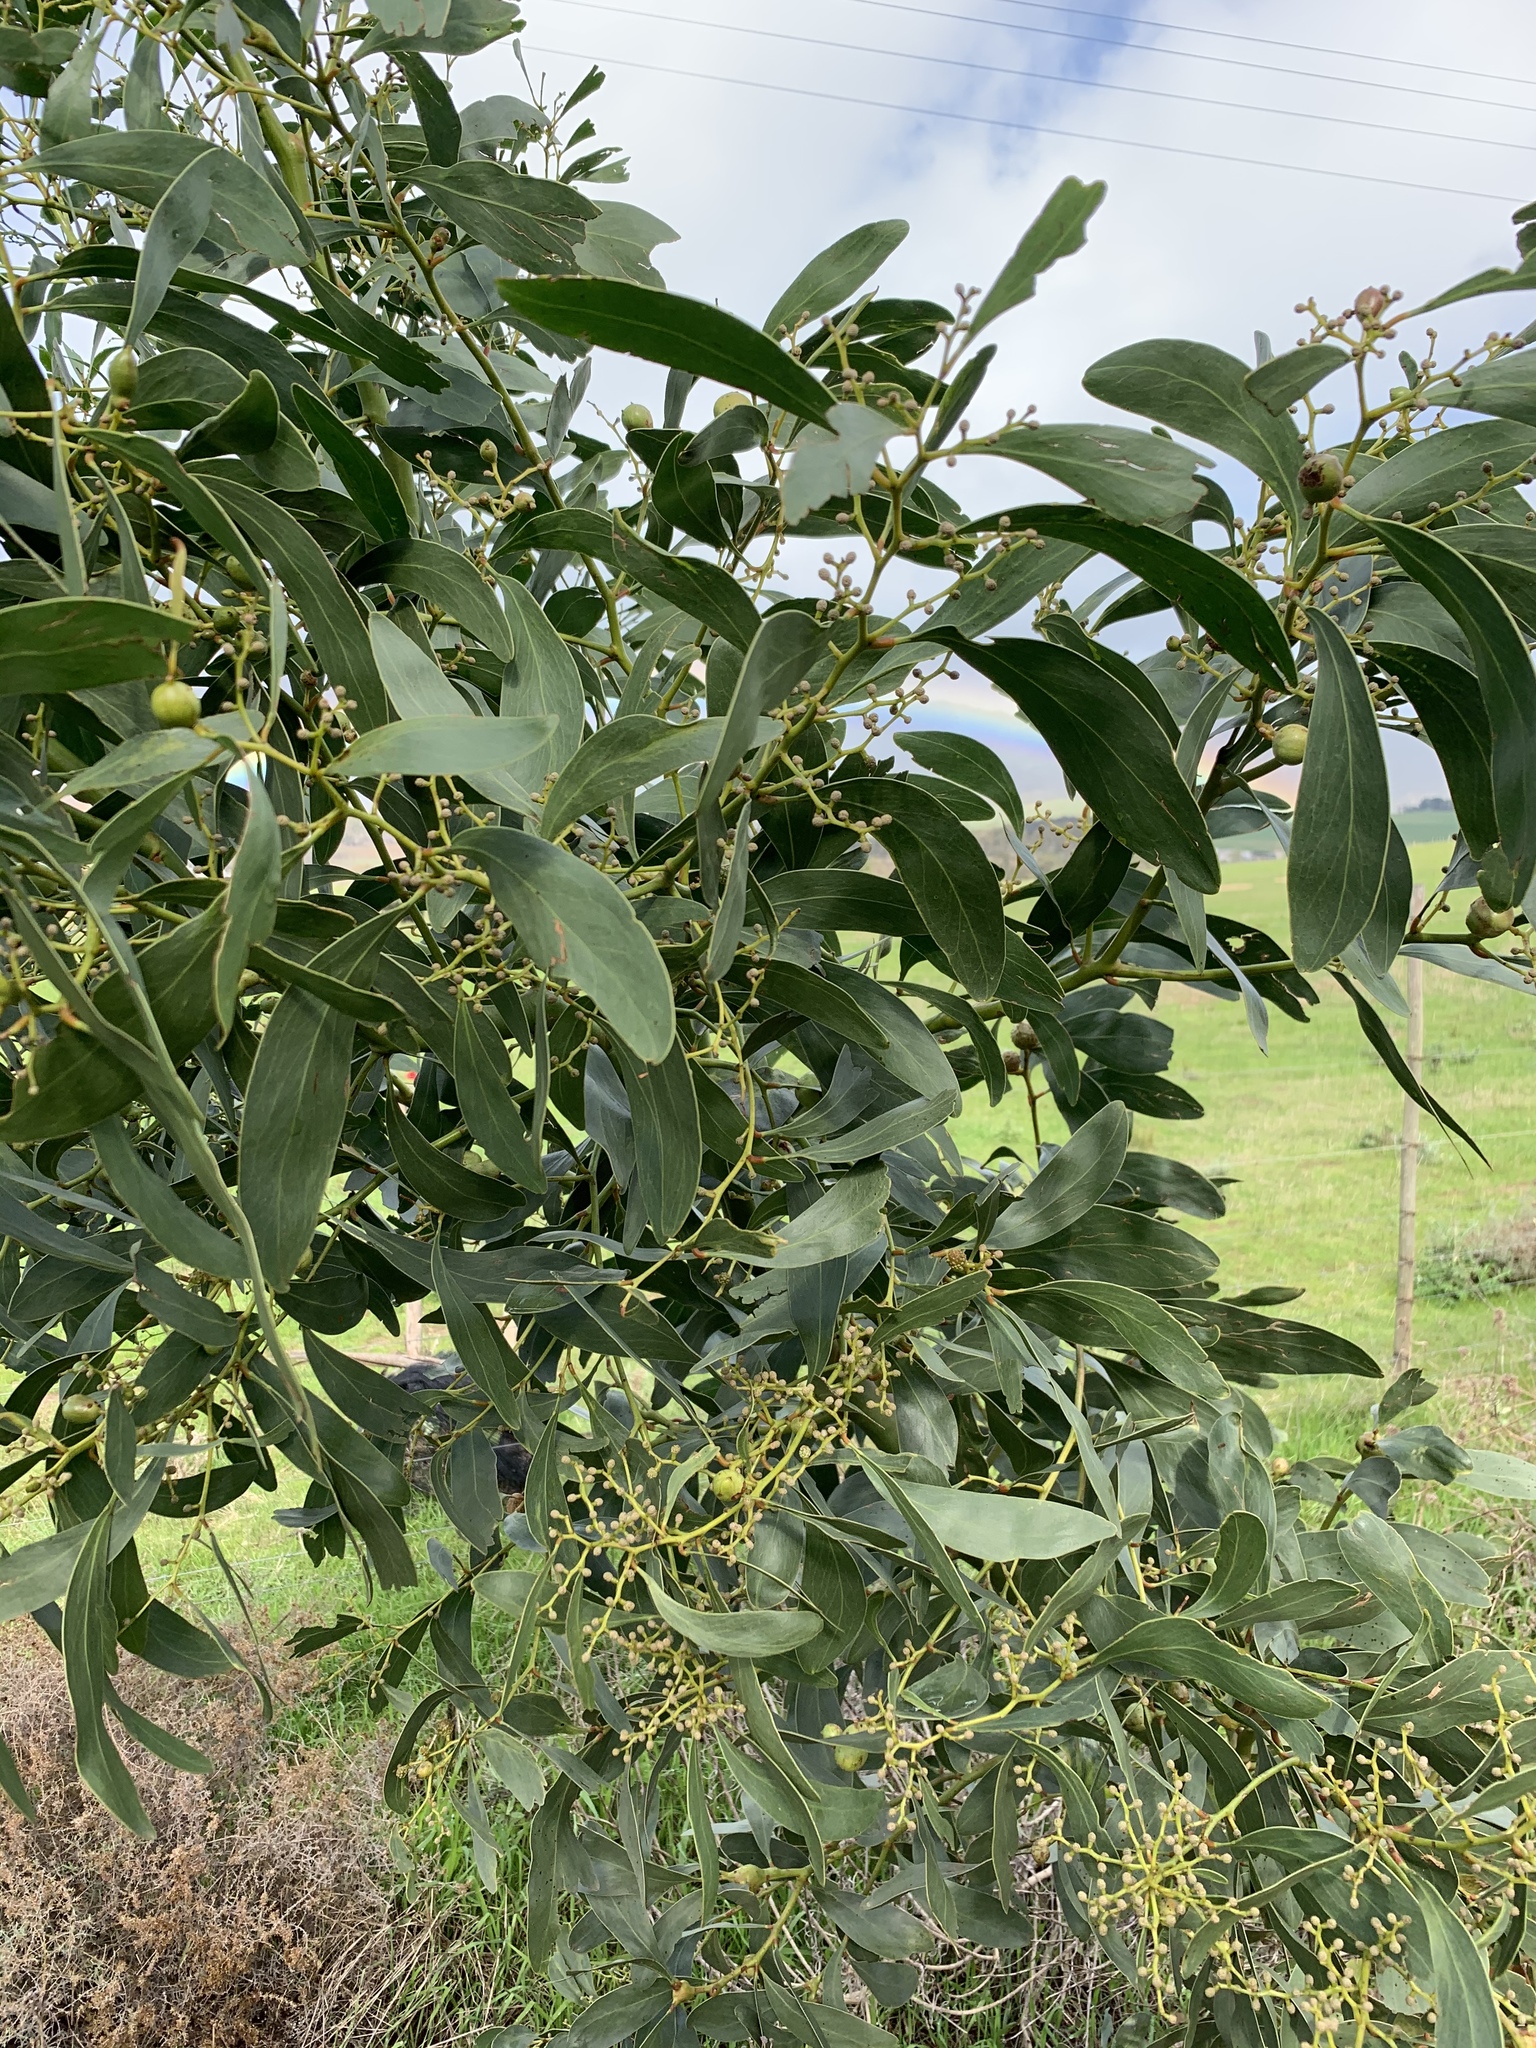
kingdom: Plantae
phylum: Tracheophyta
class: Magnoliopsida
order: Fabales
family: Fabaceae
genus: Acacia
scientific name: Acacia pycnantha
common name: Golden wattle
